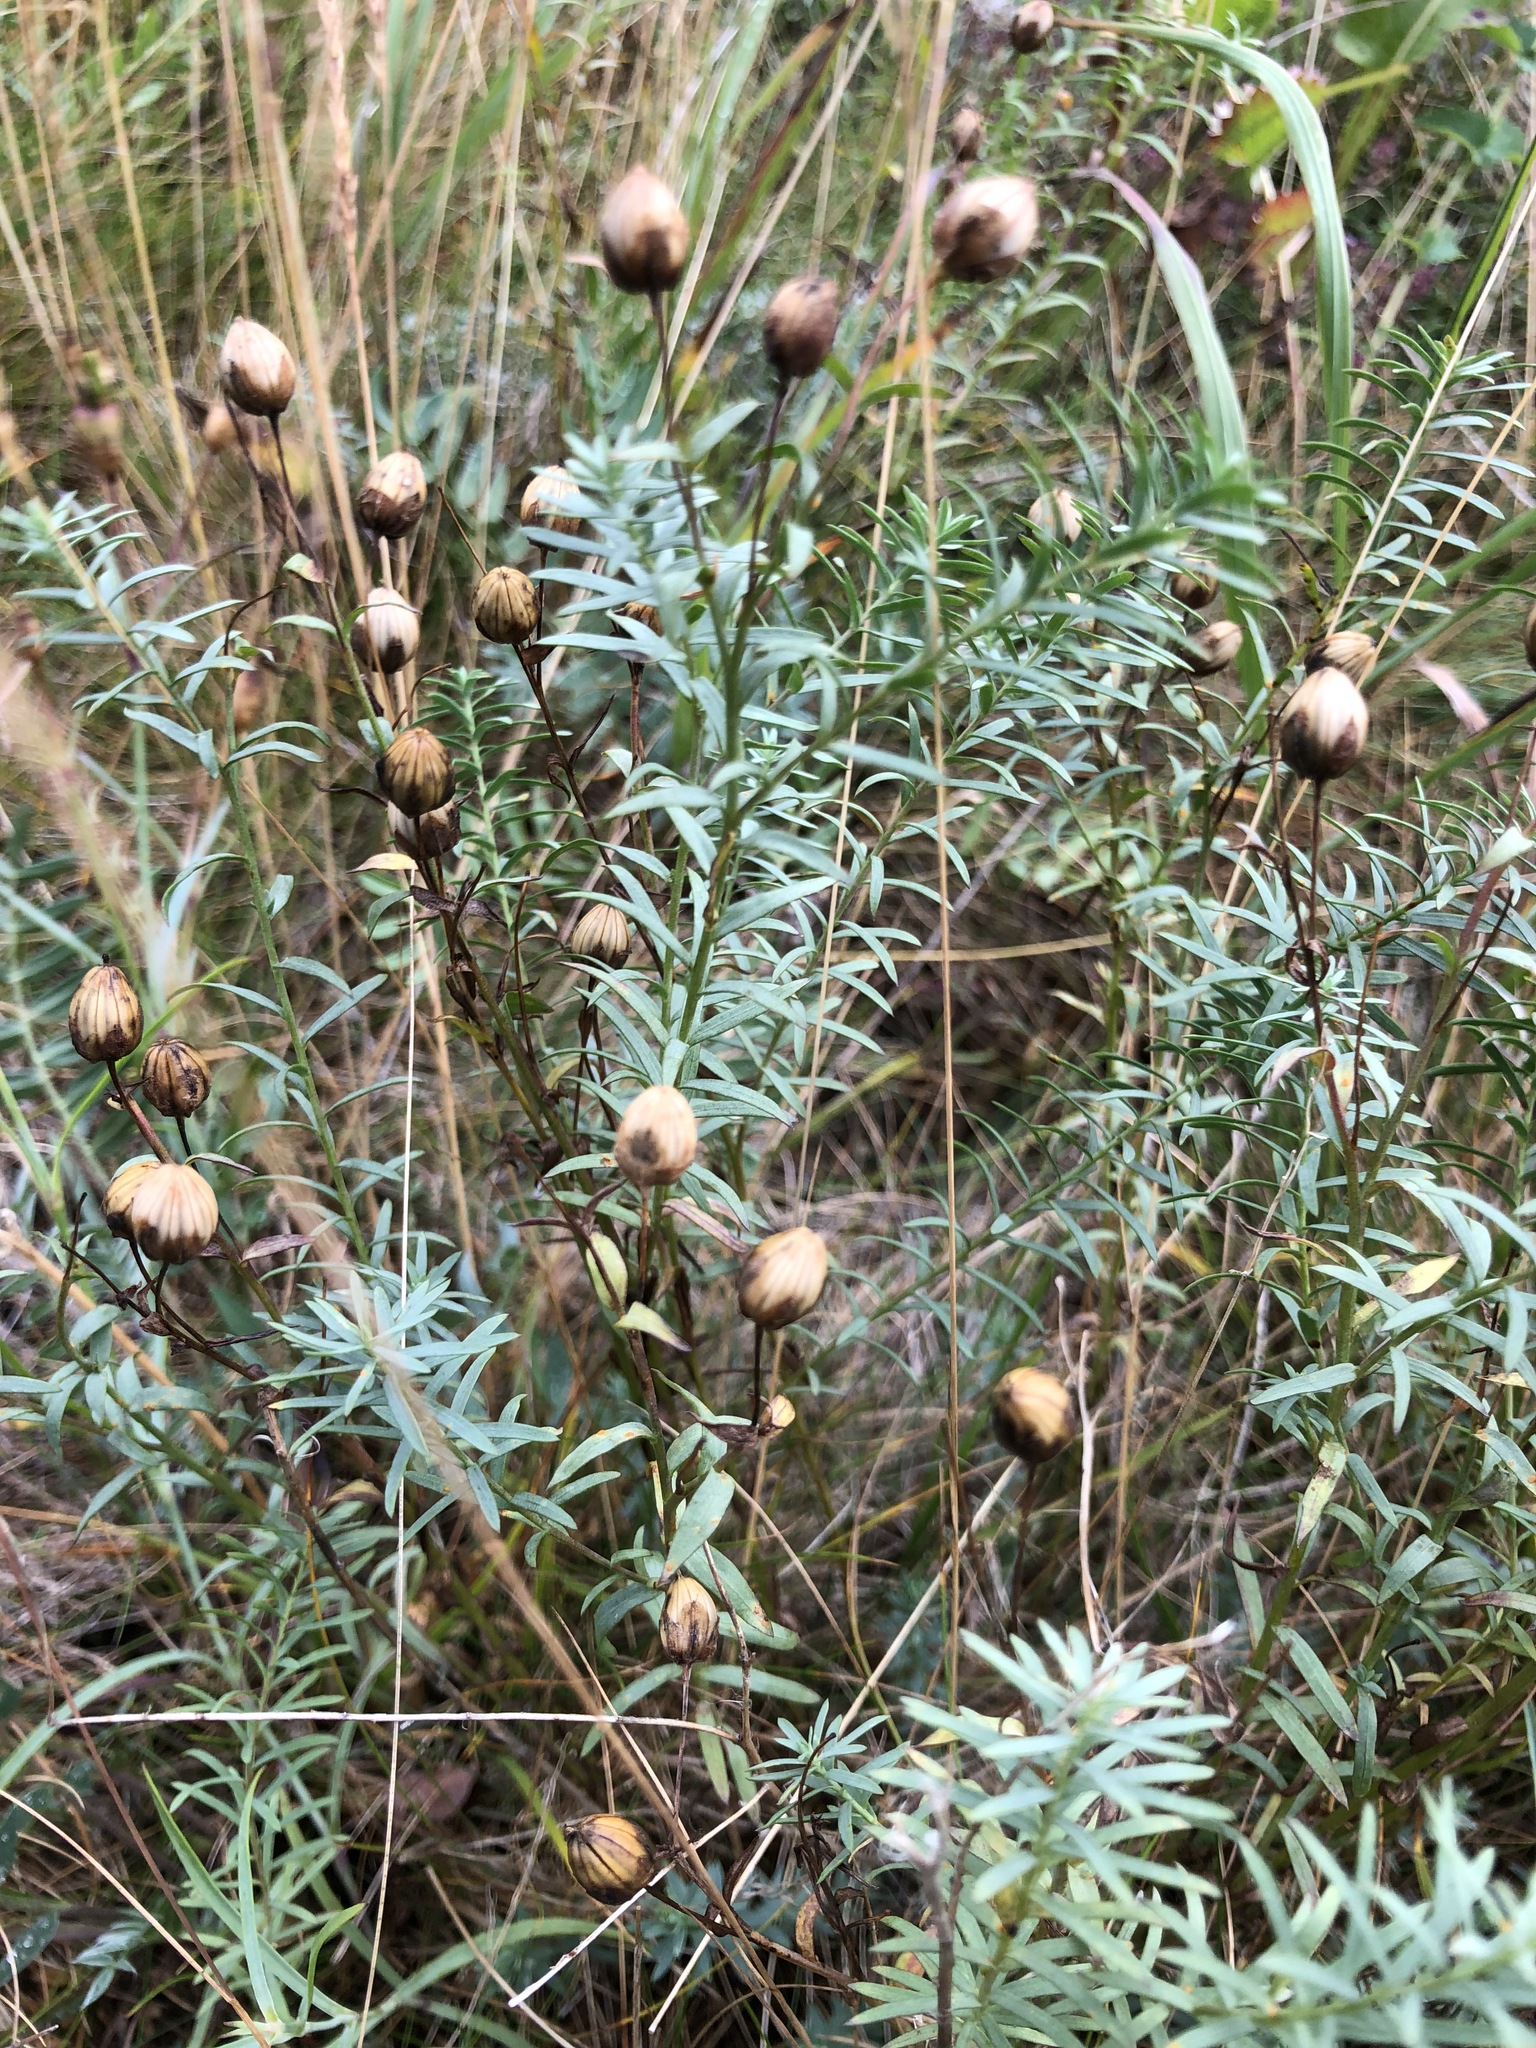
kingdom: Plantae
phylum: Tracheophyta
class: Magnoliopsida
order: Malpighiales
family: Linaceae
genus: Linum
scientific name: Linum komarovii
